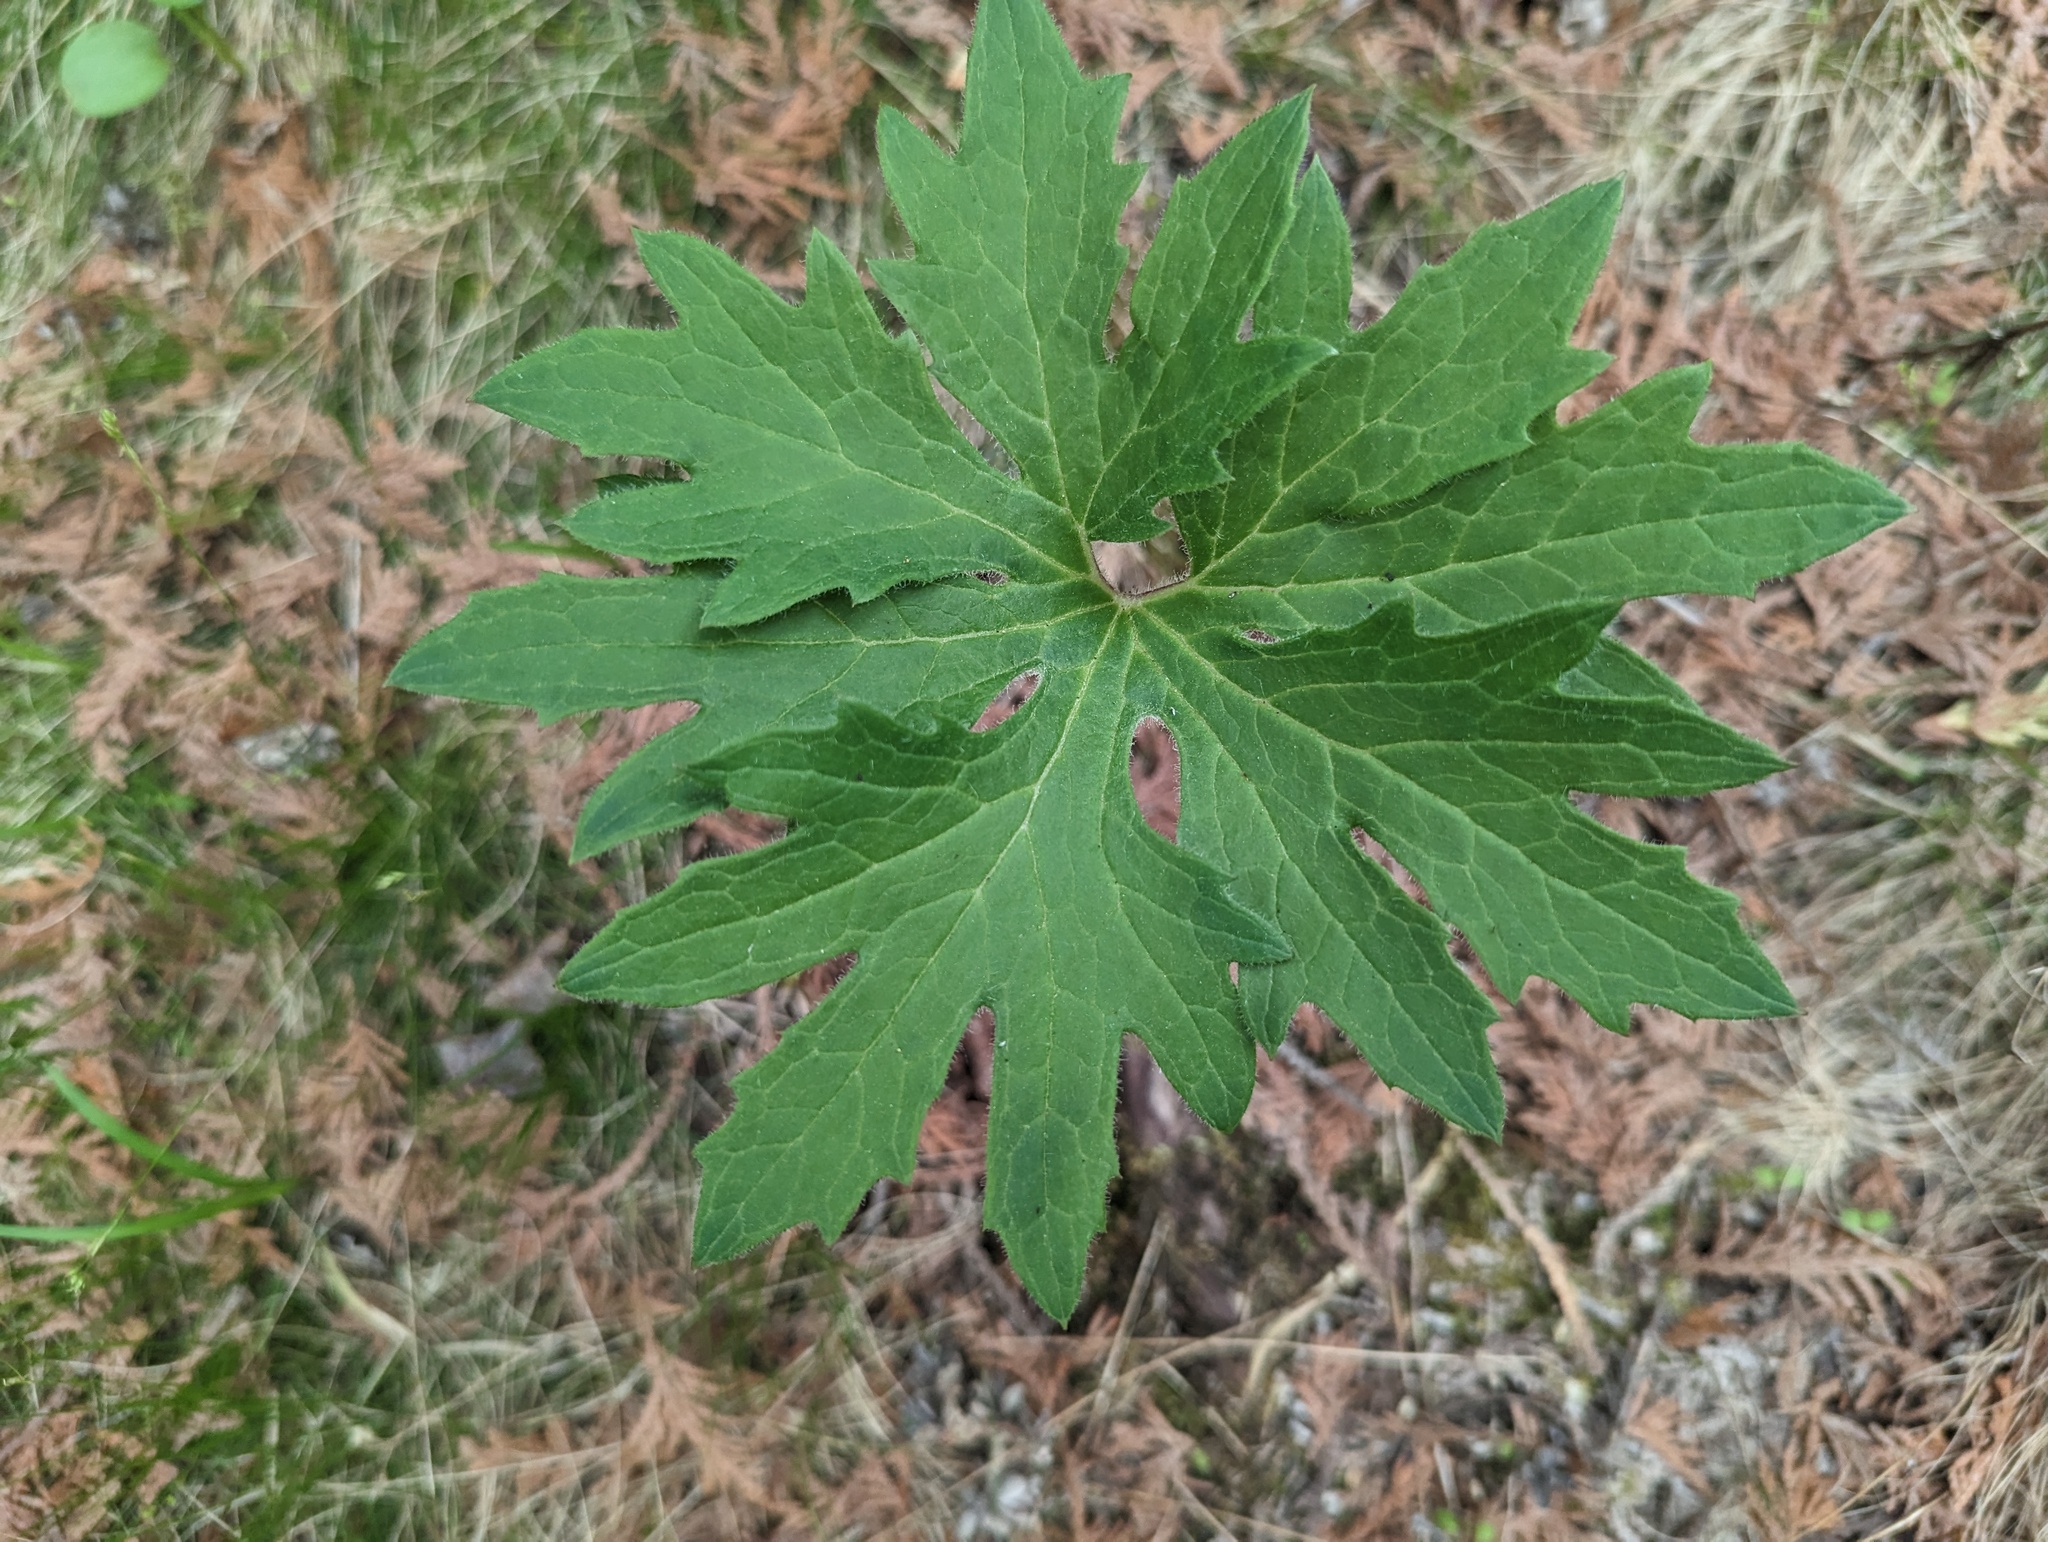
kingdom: Plantae
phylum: Tracheophyta
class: Magnoliopsida
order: Asterales
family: Asteraceae
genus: Petasites
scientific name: Petasites frigidus
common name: Arctic butterbur
